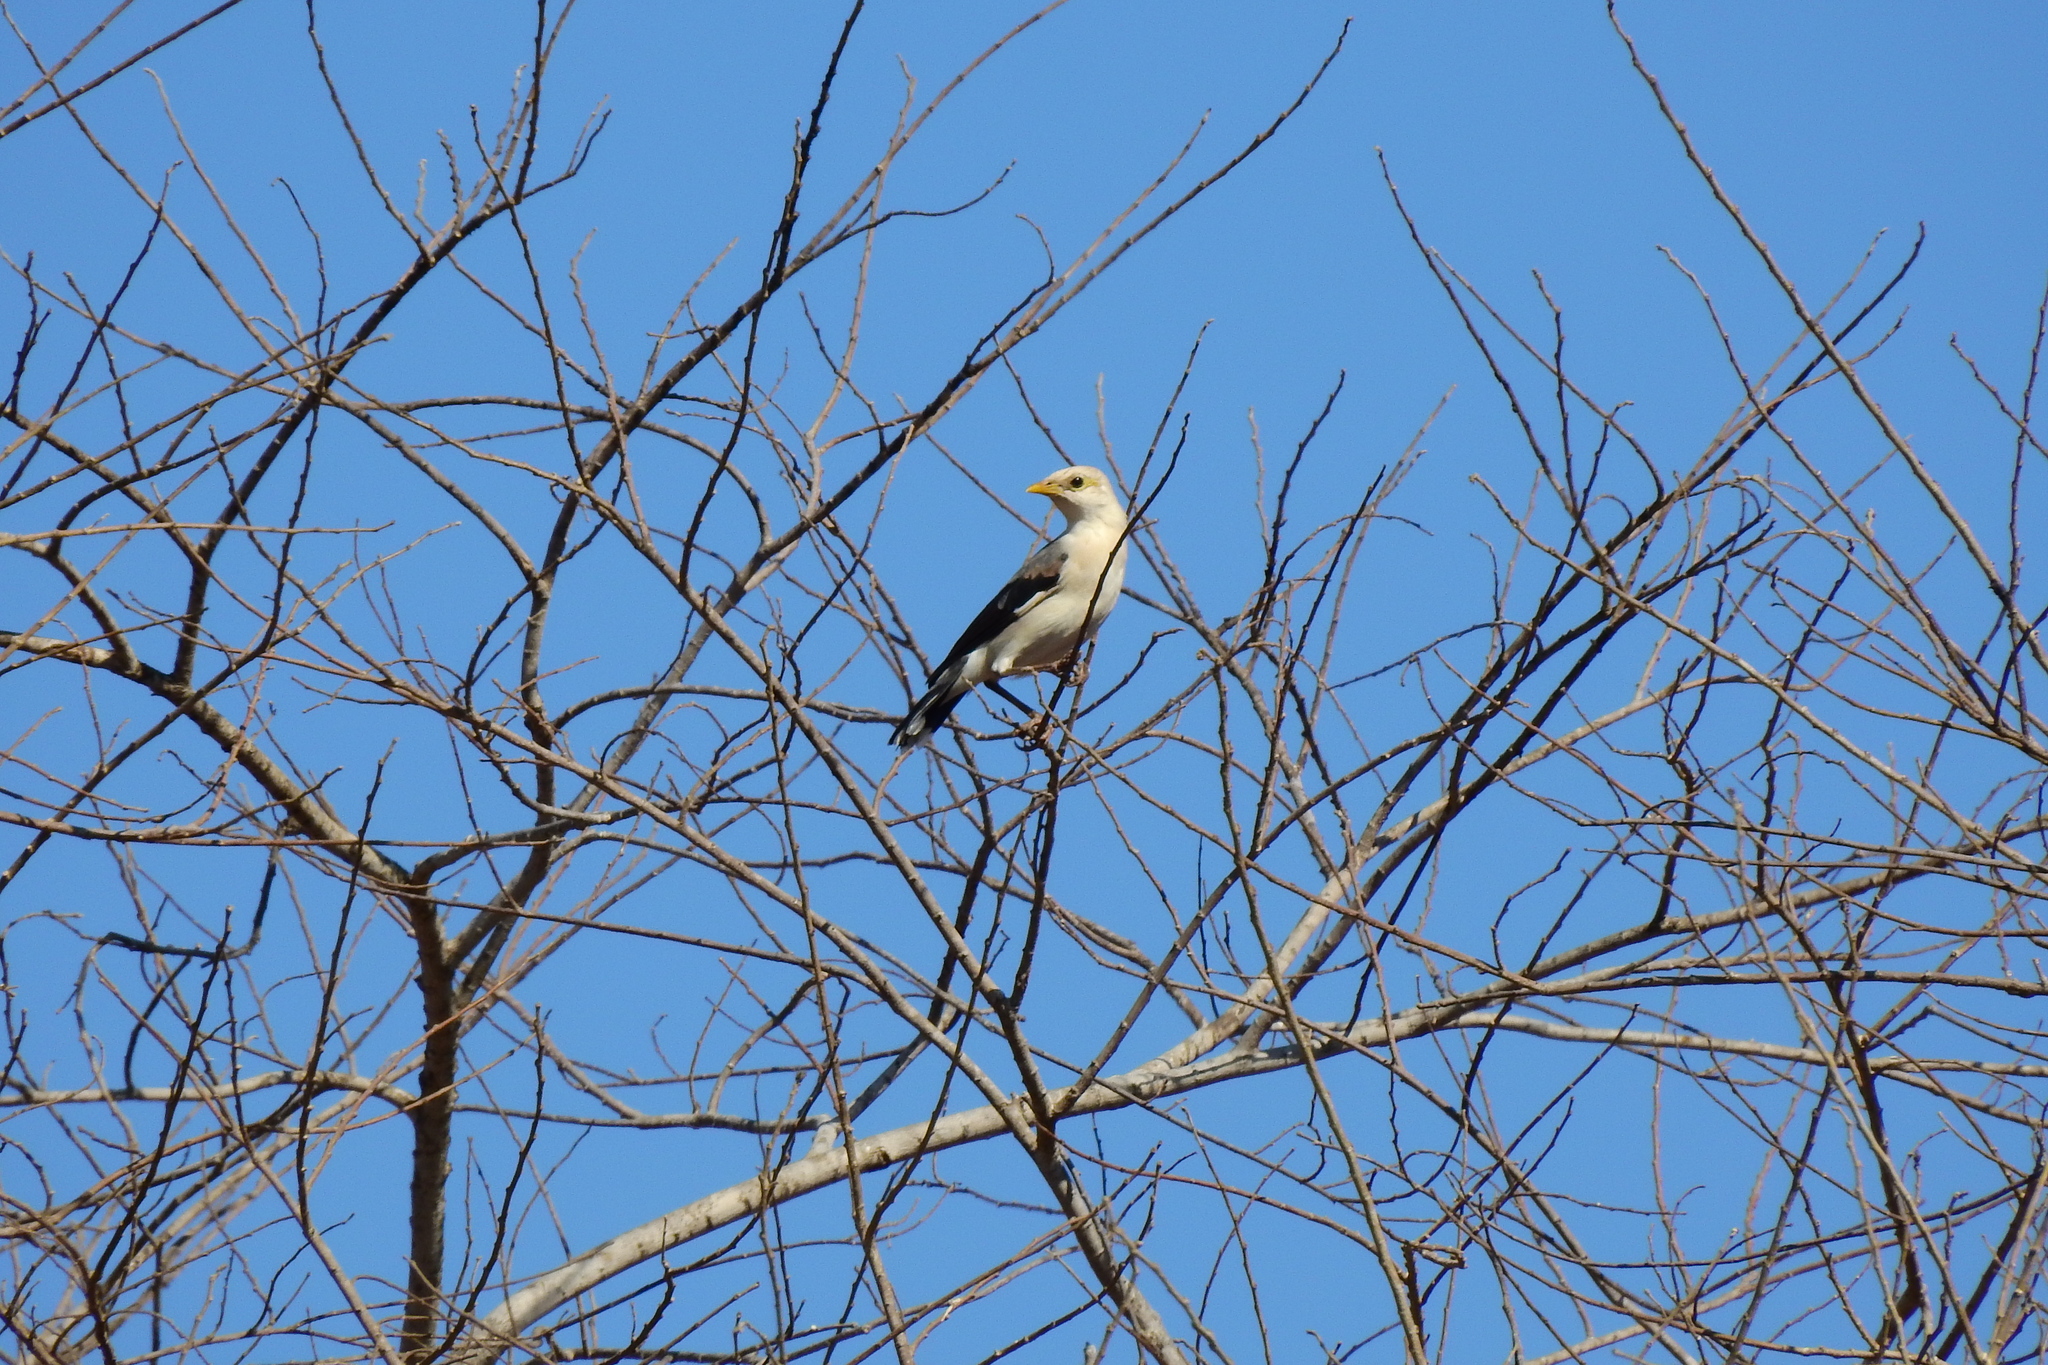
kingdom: Animalia
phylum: Chordata
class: Aves
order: Passeriformes
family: Sturnidae
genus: Acridotheres
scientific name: Acridotheres melanopterus
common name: Black-winged starling
